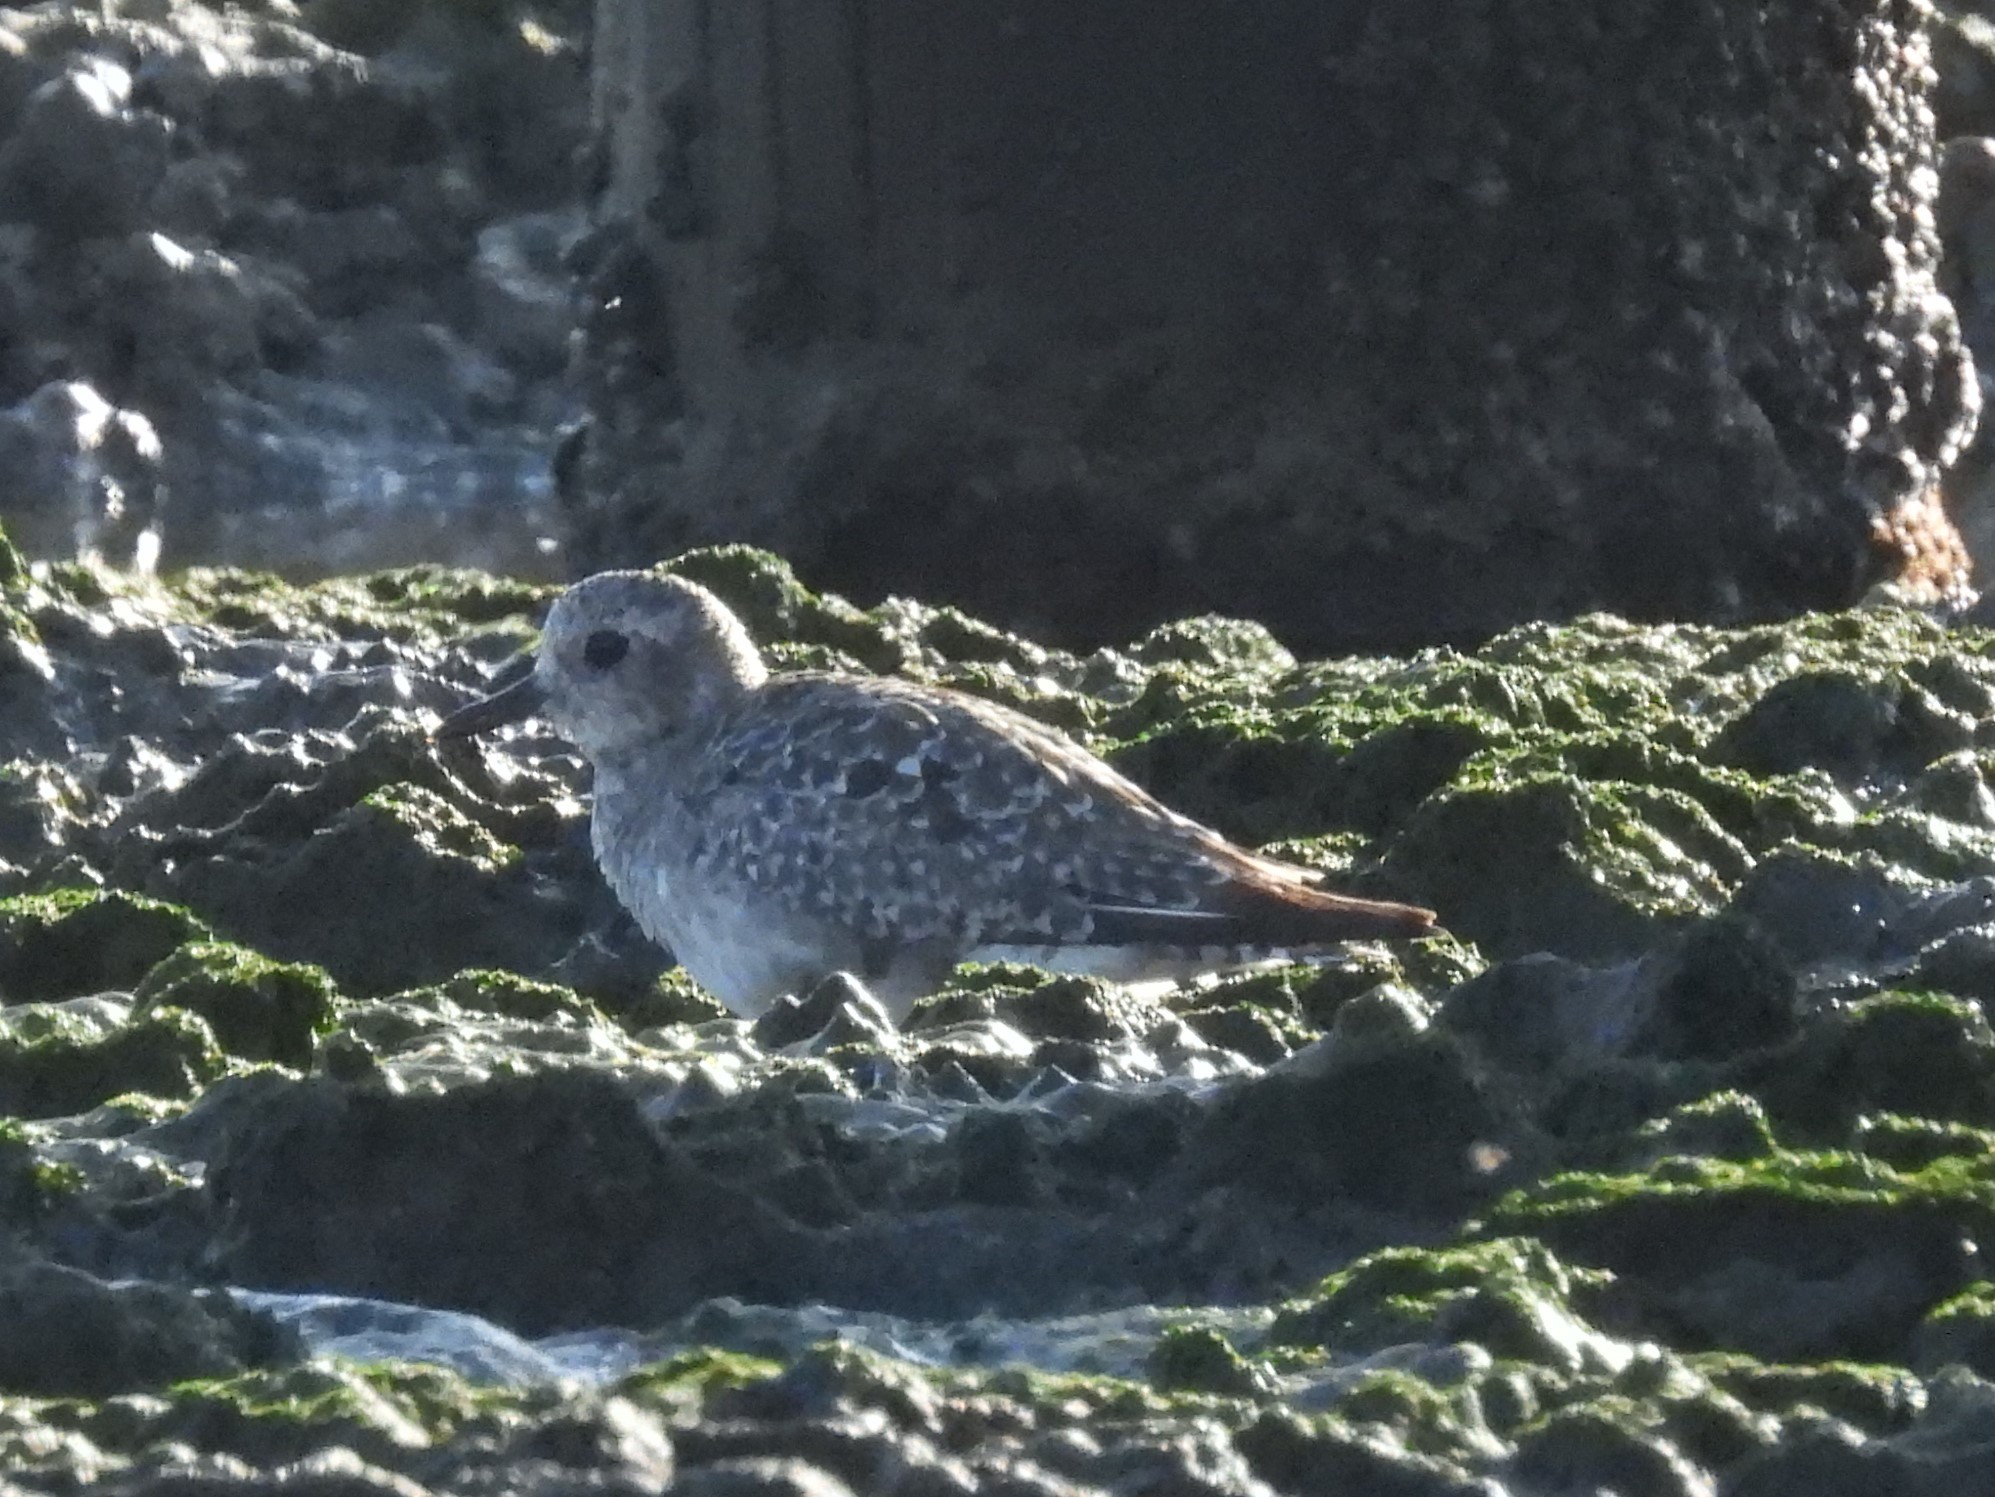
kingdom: Animalia
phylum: Chordata
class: Aves
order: Charadriiformes
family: Charadriidae
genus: Pluvialis
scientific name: Pluvialis squatarola
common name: Grey plover
